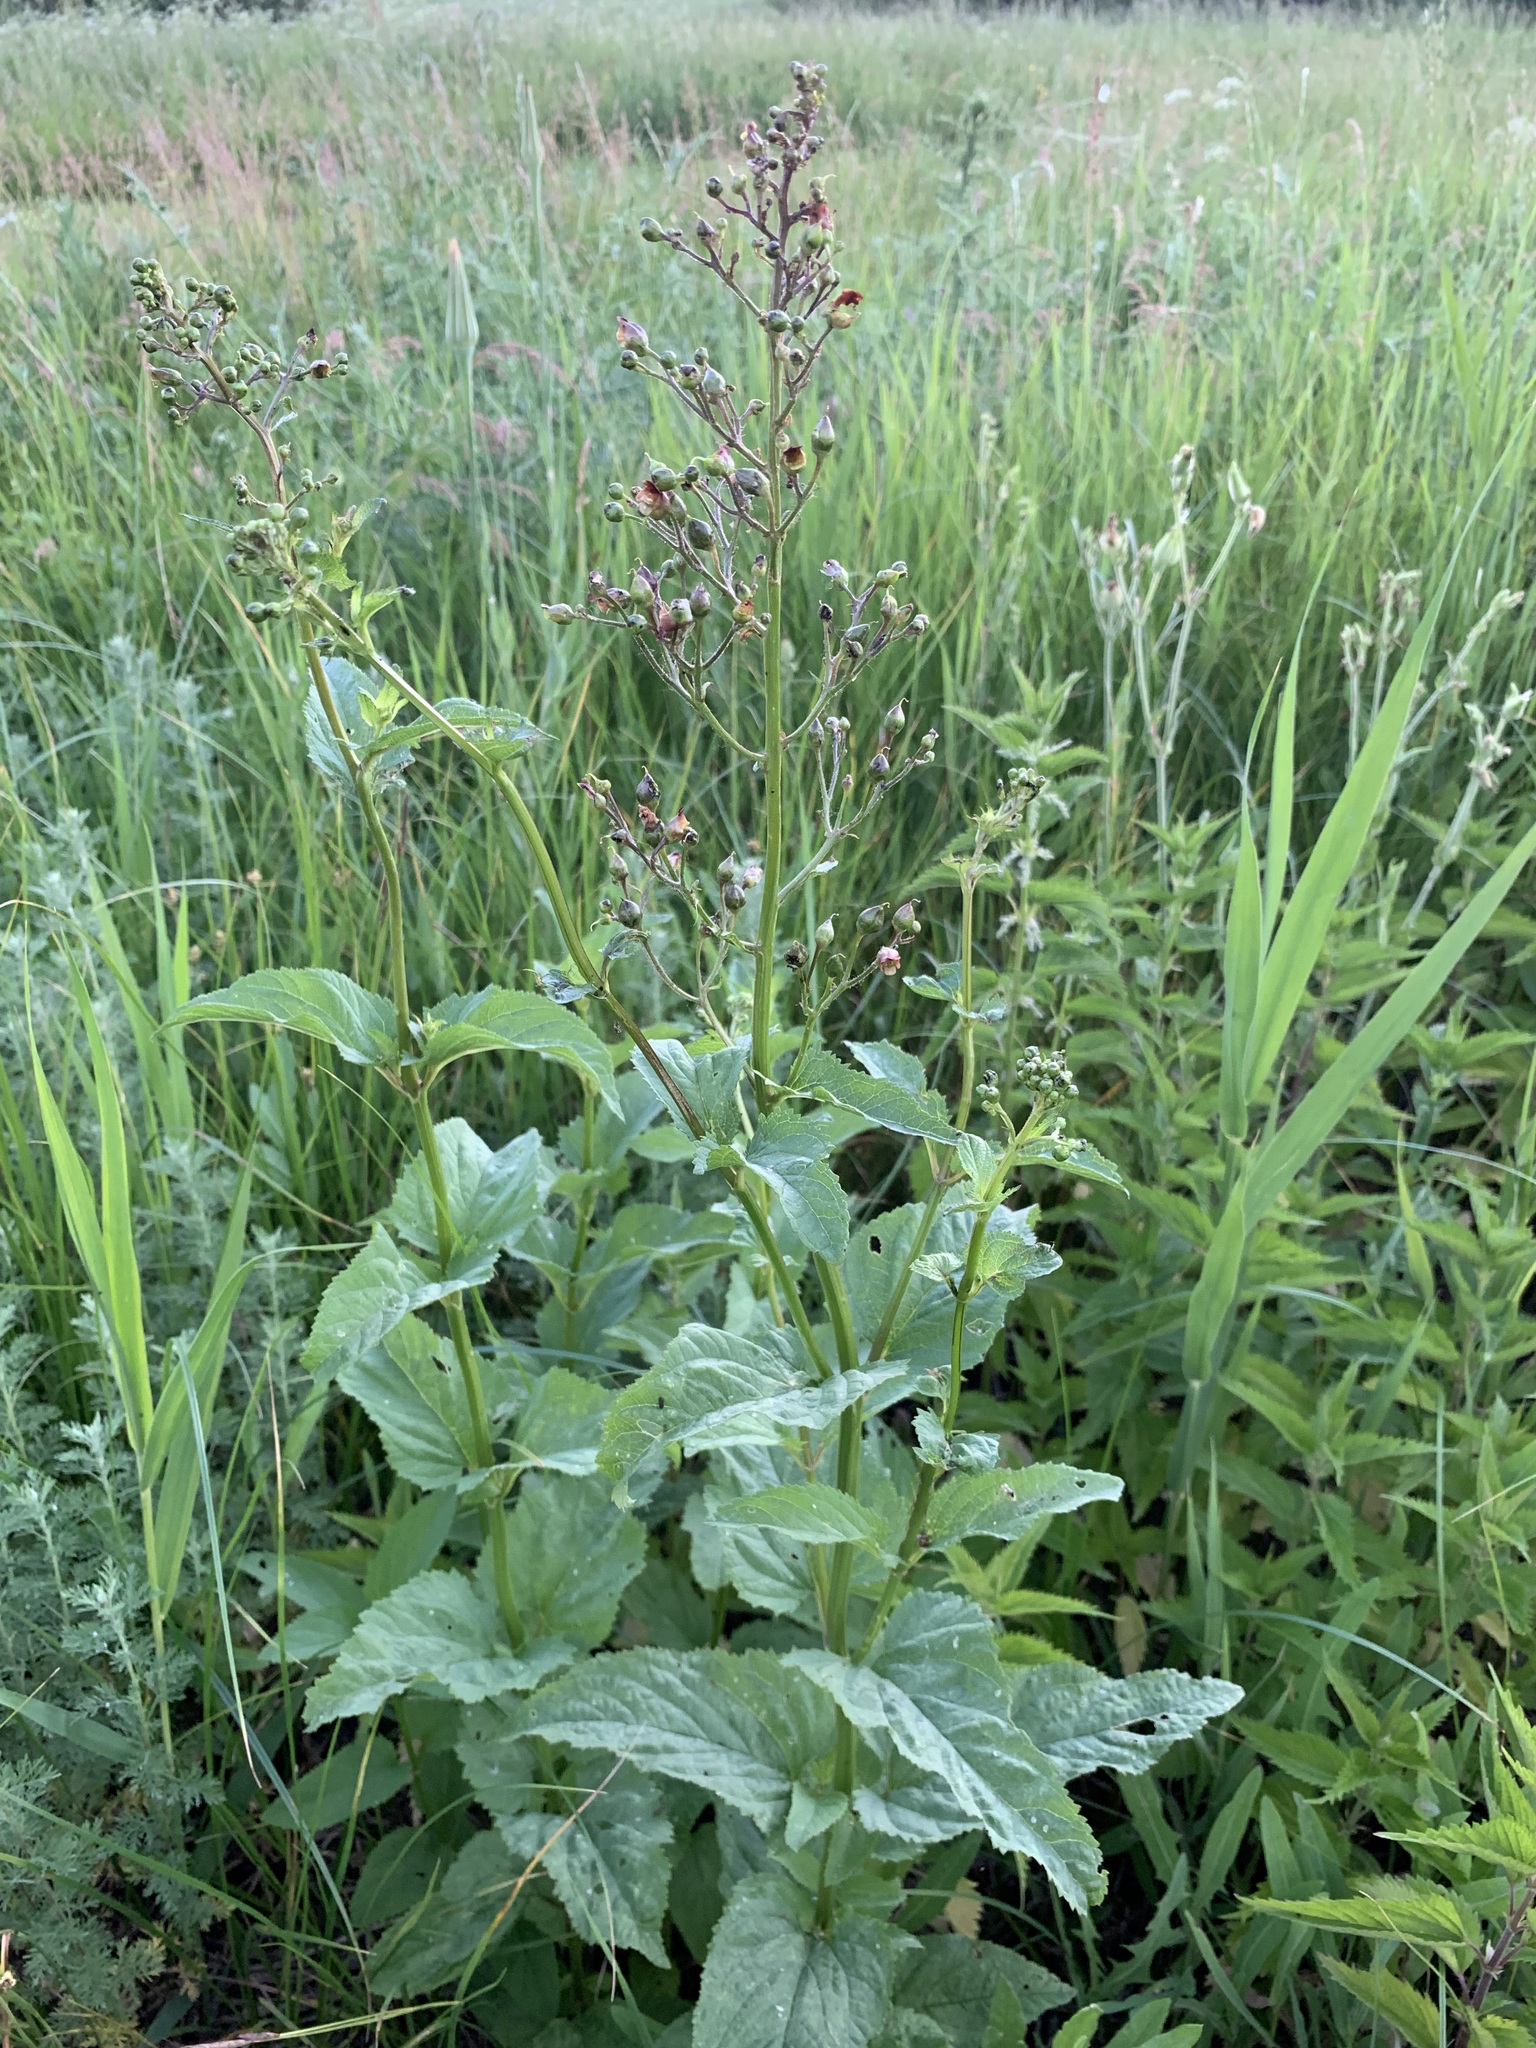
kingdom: Plantae
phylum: Tracheophyta
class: Magnoliopsida
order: Lamiales
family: Scrophulariaceae
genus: Scrophularia
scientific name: Scrophularia nodosa
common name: Common figwort
